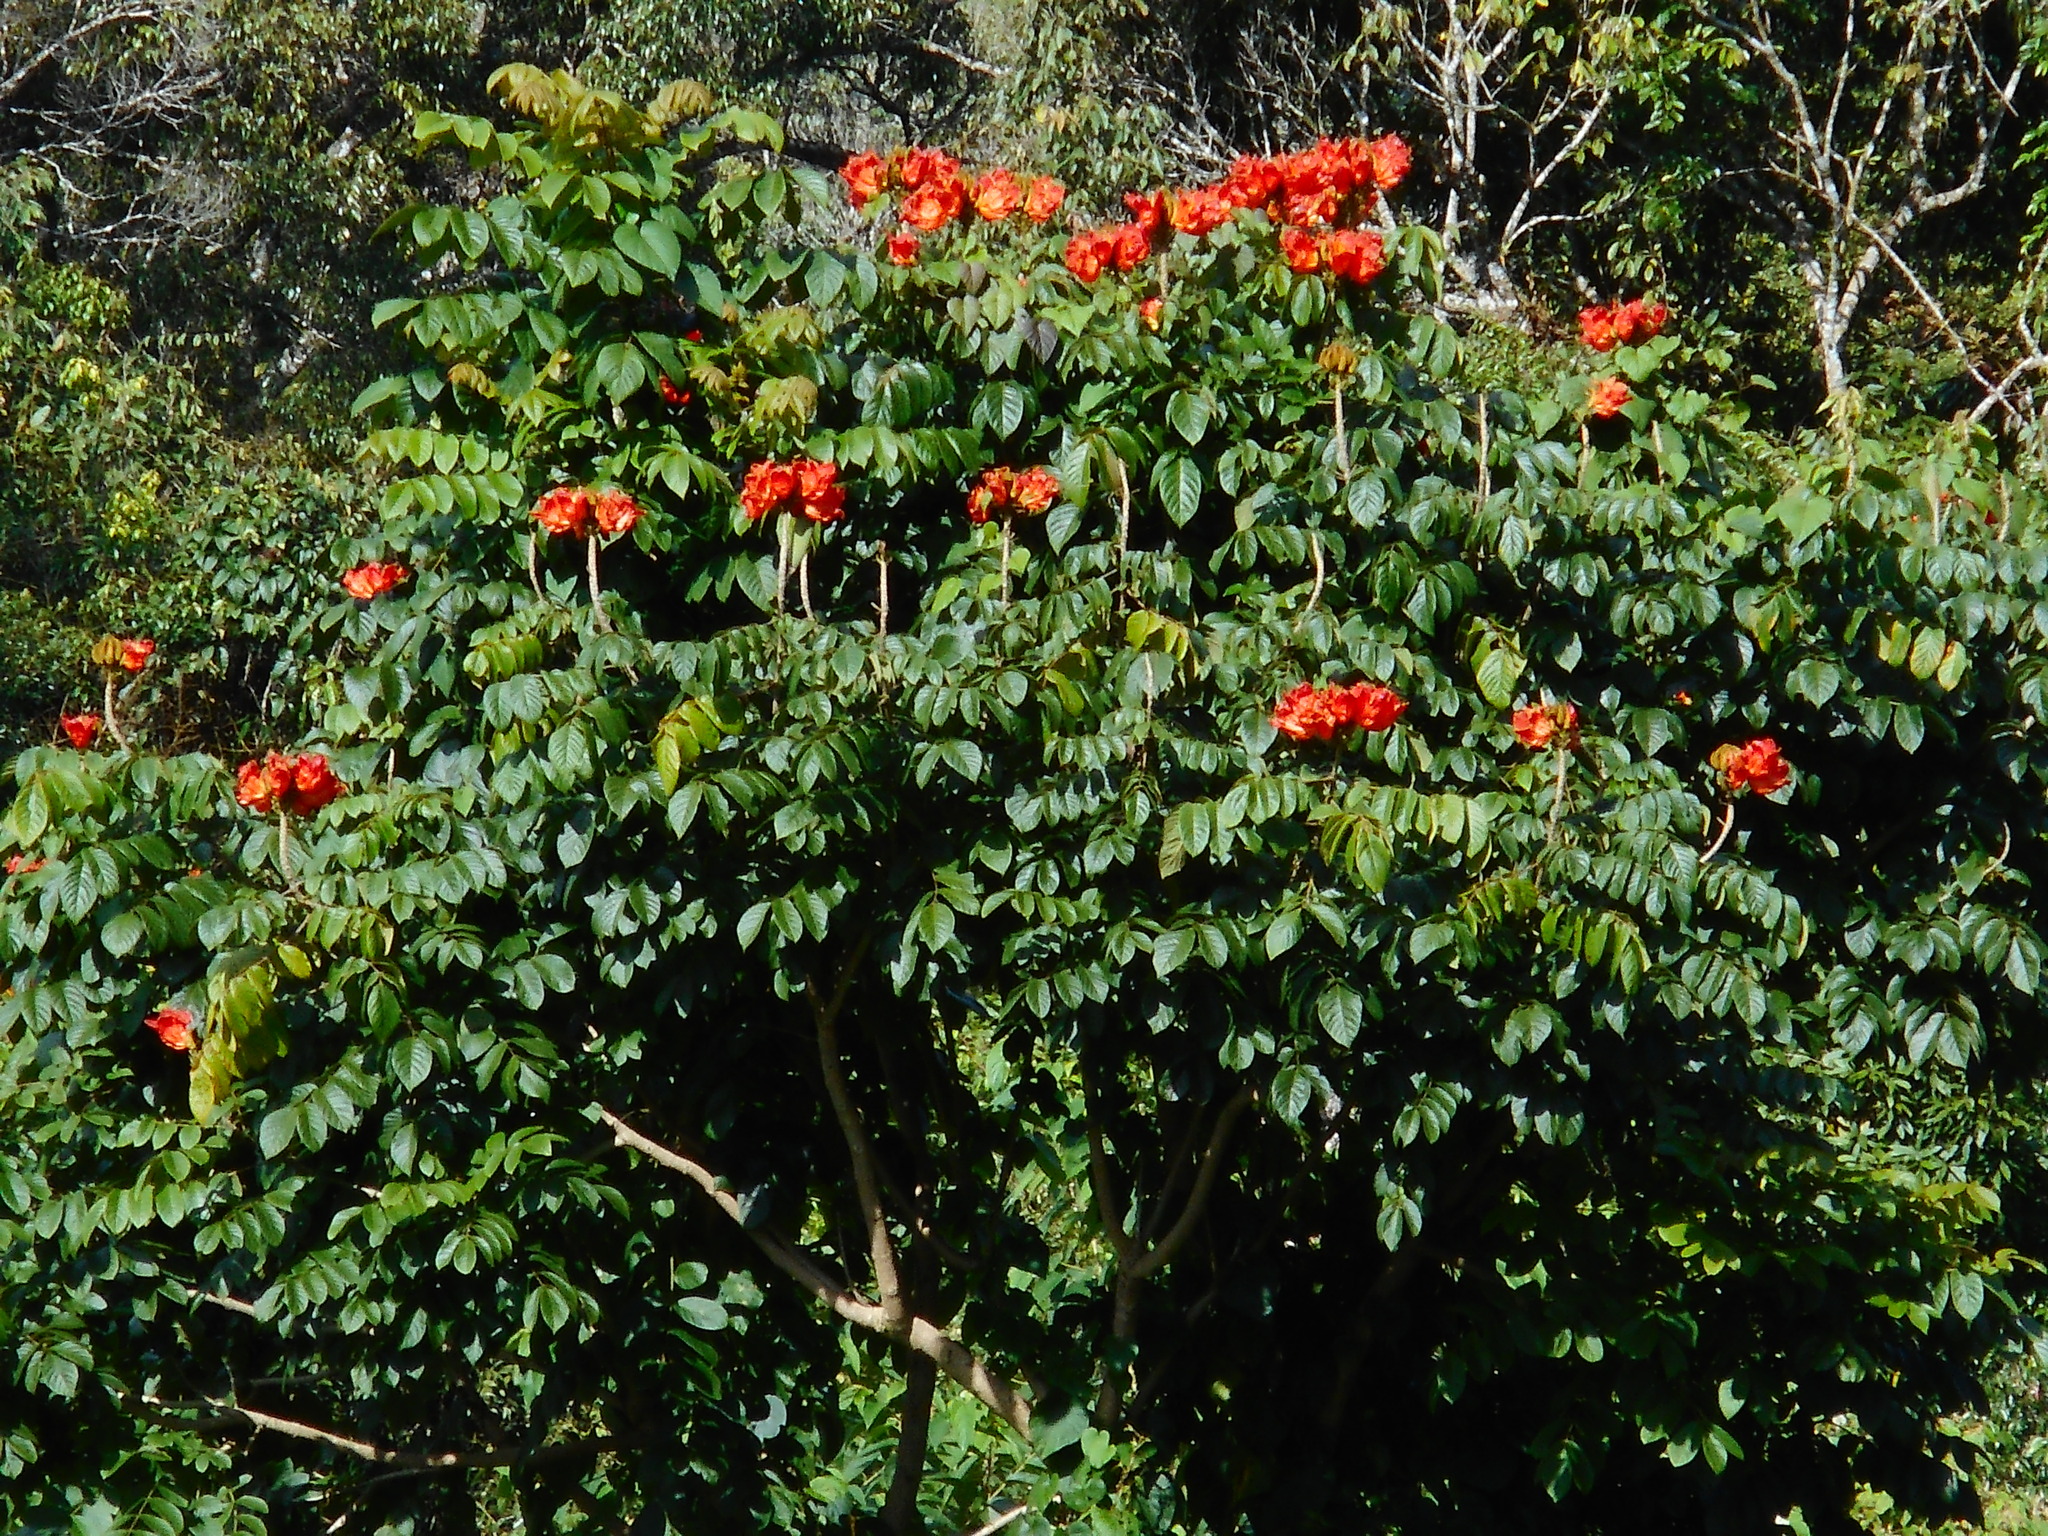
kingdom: Plantae
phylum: Tracheophyta
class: Magnoliopsida
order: Lamiales
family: Bignoniaceae
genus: Spathodea
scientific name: Spathodea campanulata
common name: African tuliptree
